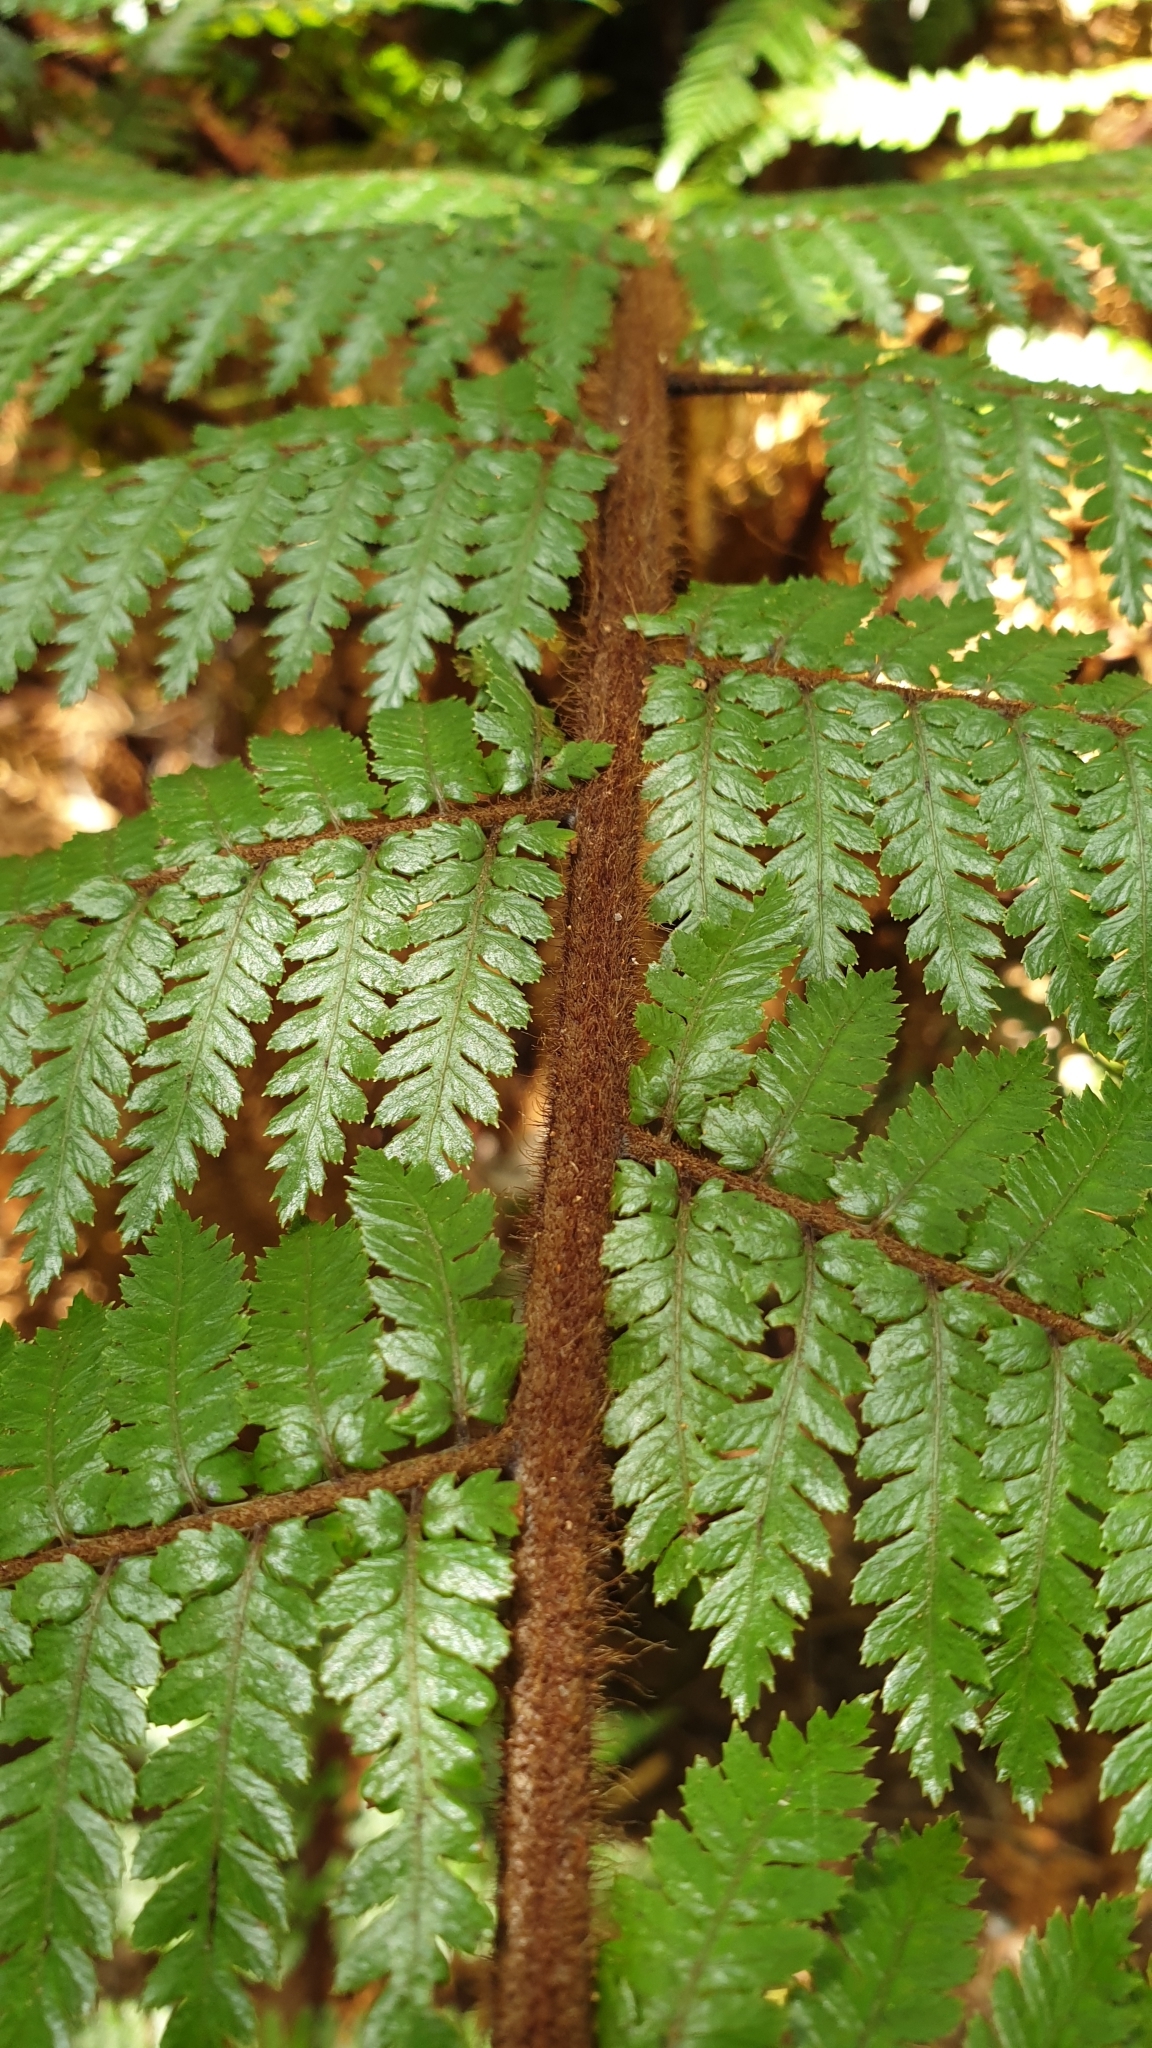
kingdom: Plantae
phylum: Tracheophyta
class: Polypodiopsida
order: Cyatheales
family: Dicksoniaceae
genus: Dicksonia
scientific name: Dicksonia squarrosa
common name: Hard treefern
